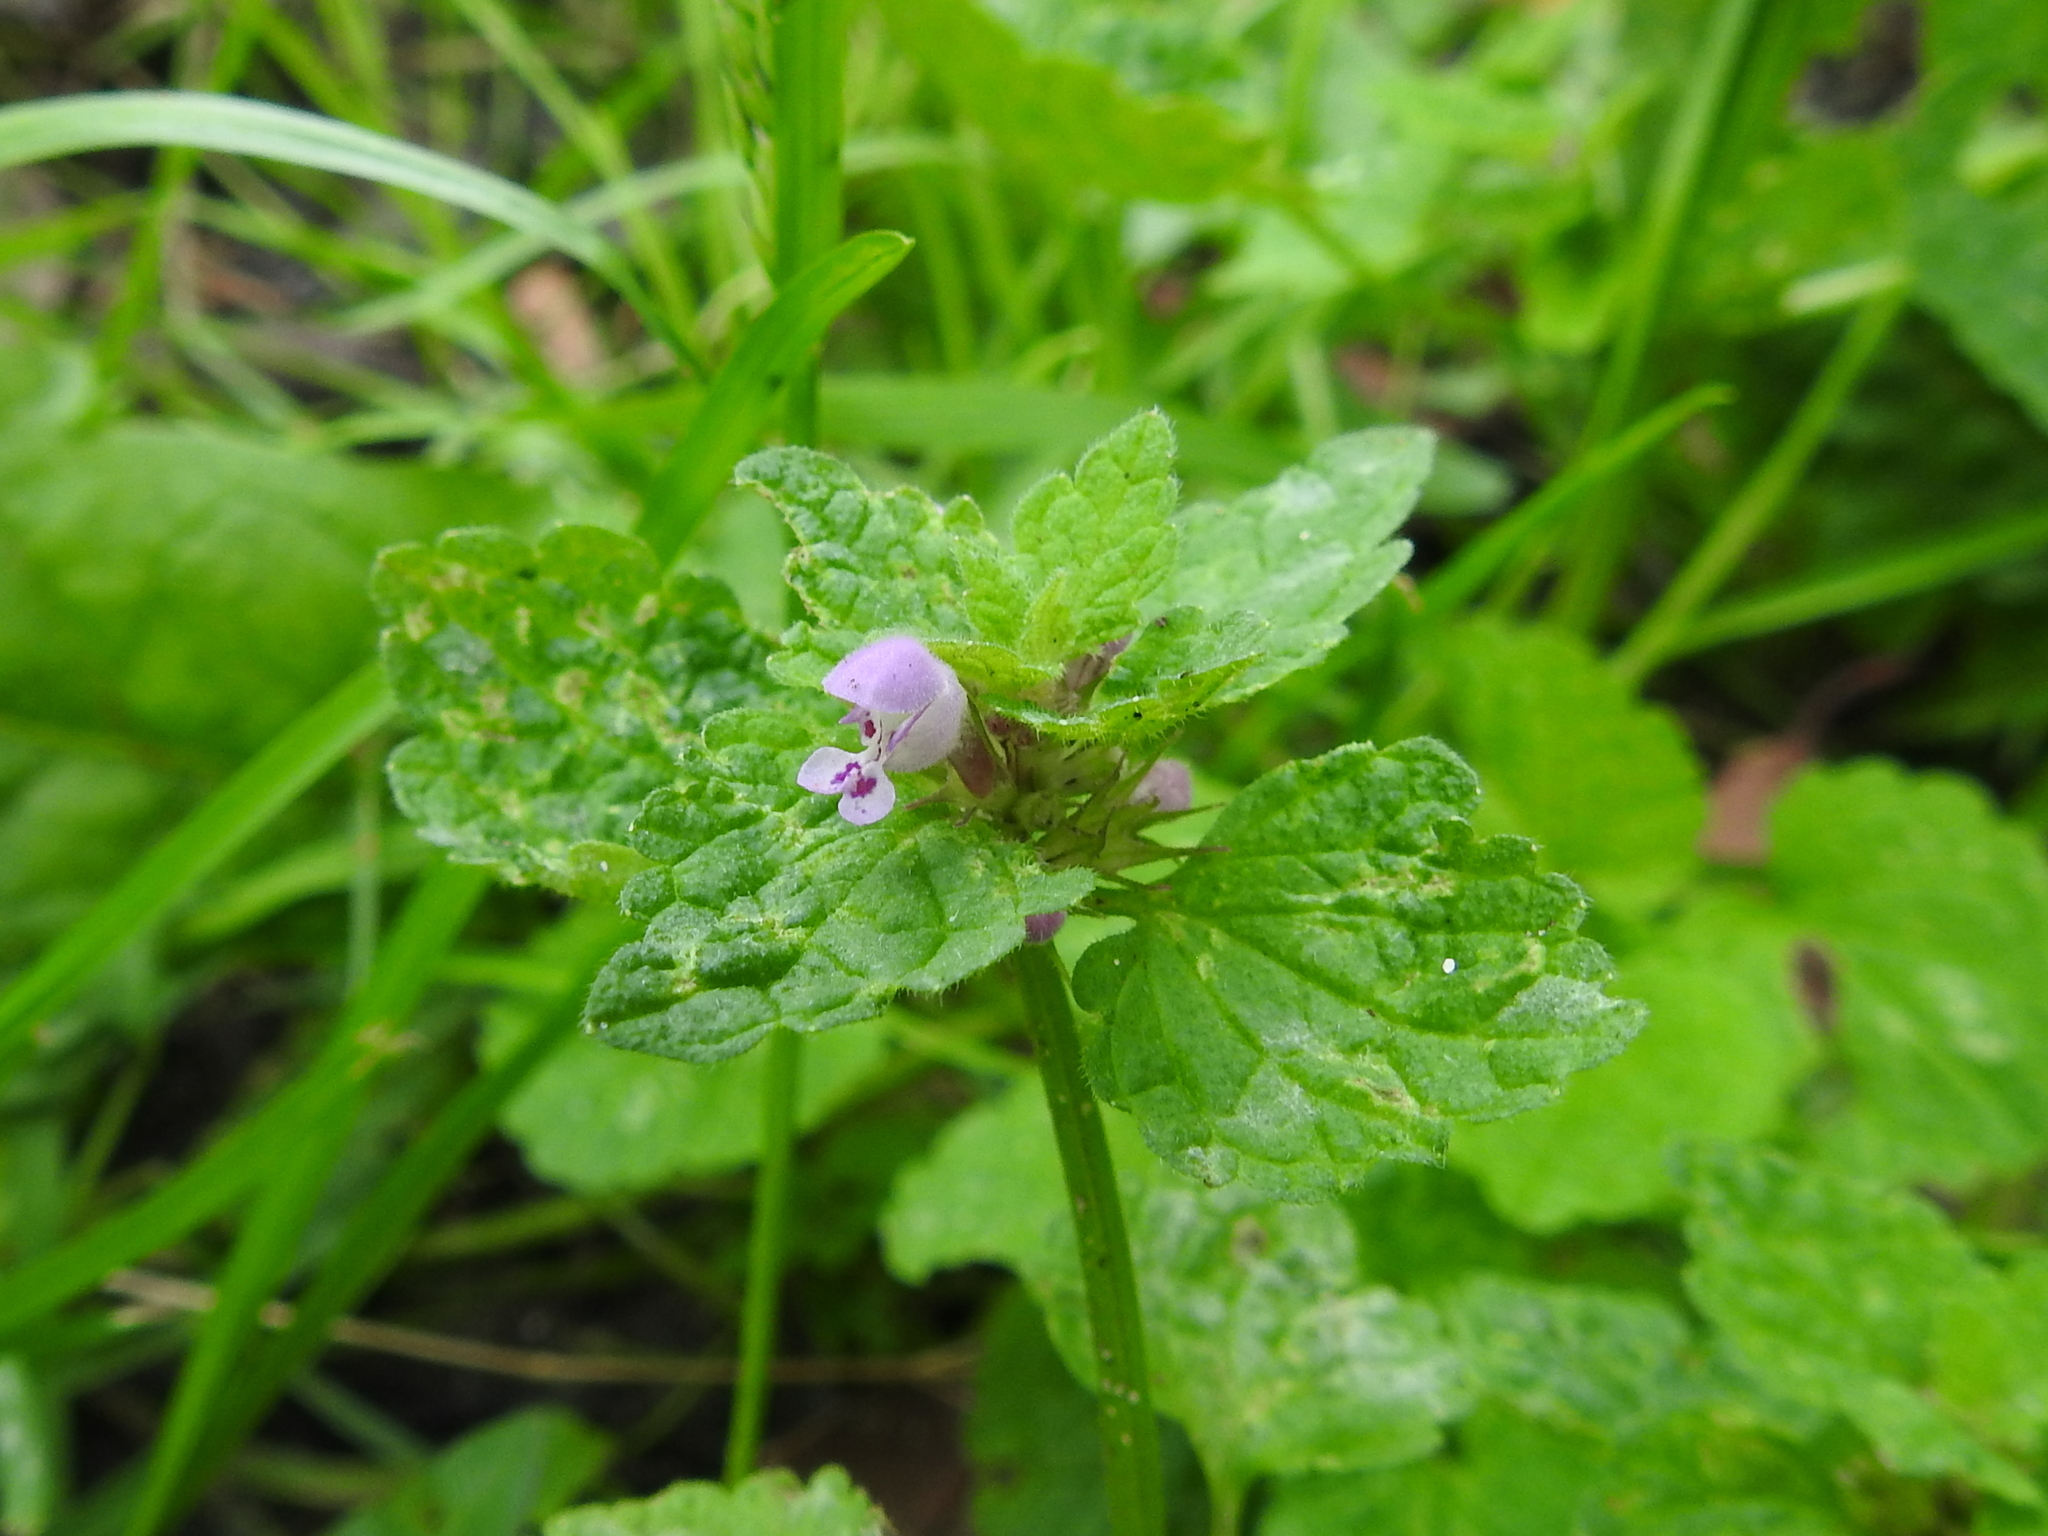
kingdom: Plantae
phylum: Tracheophyta
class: Magnoliopsida
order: Lamiales
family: Lamiaceae
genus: Lamium
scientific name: Lamium purpureum
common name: Red dead-nettle
